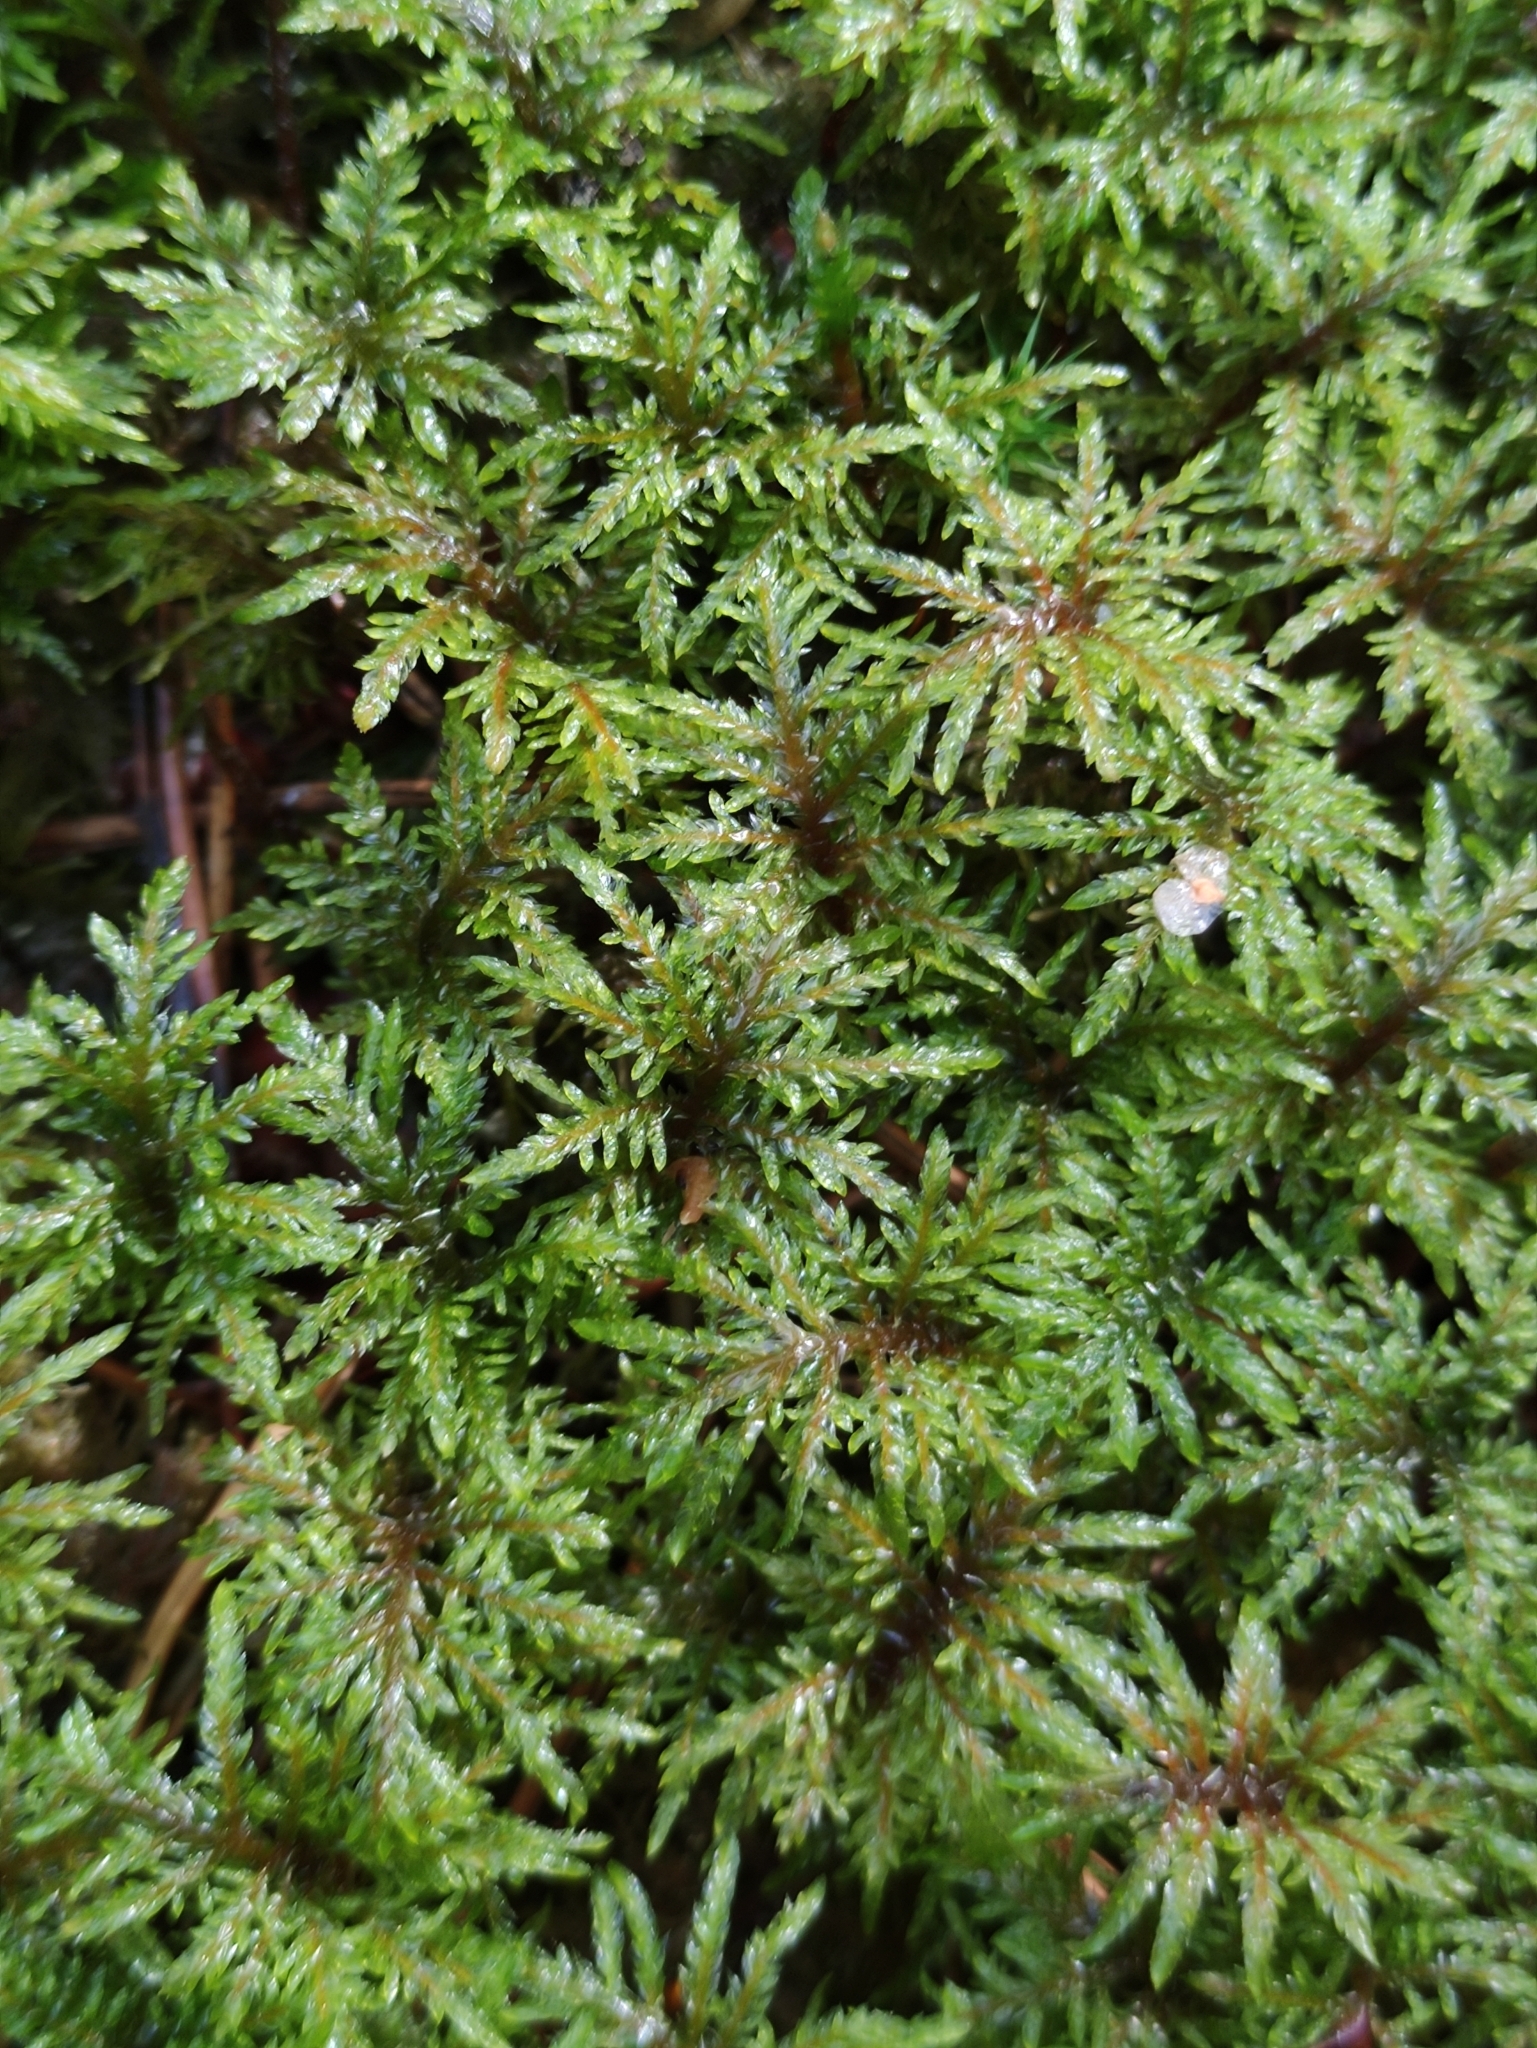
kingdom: Plantae
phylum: Bryophyta
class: Bryopsida
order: Hypnales
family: Hylocomiaceae
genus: Hylocomium
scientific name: Hylocomium splendens
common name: Stairstep moss
